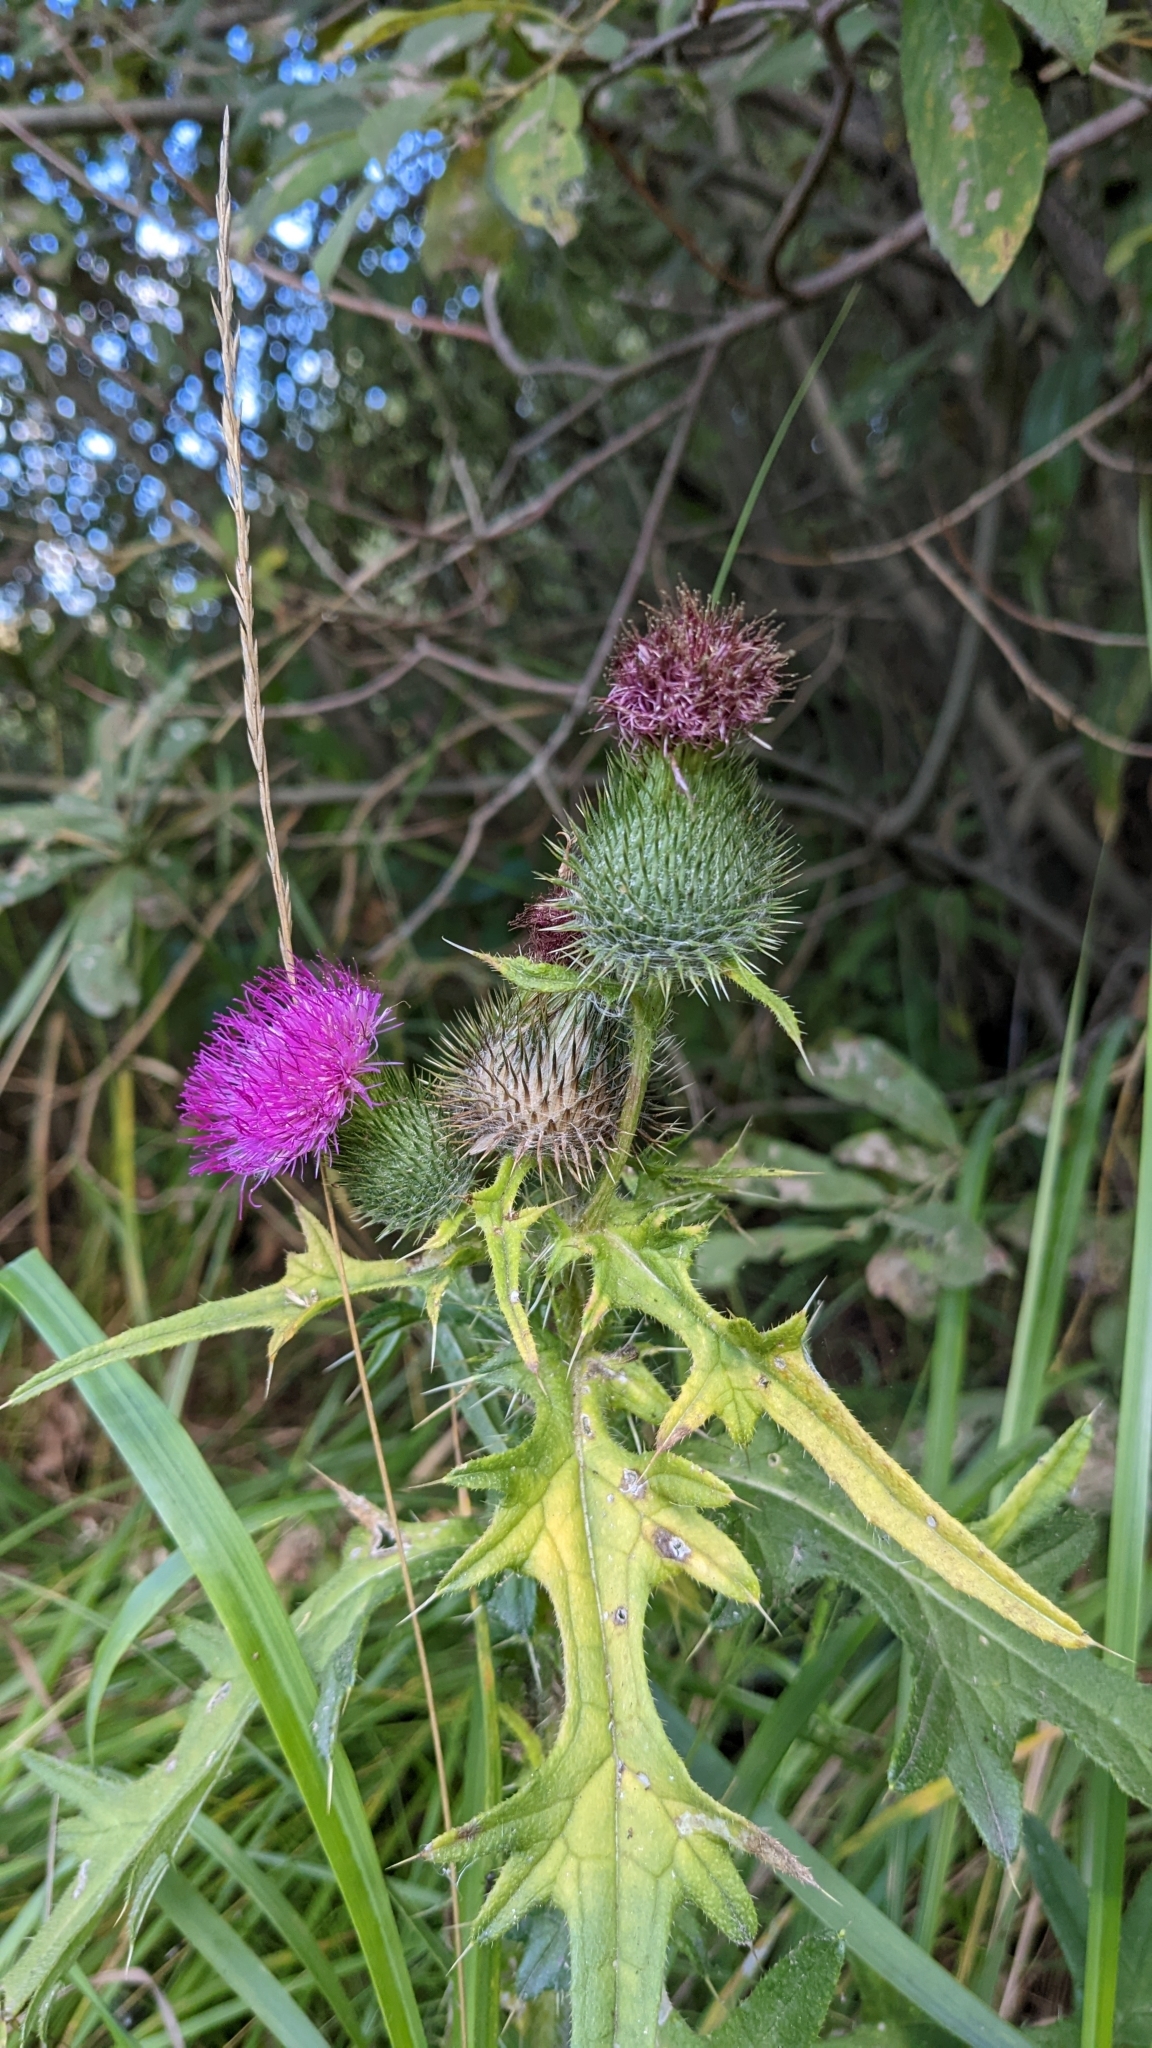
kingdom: Plantae
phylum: Tracheophyta
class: Magnoliopsida
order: Asterales
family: Asteraceae
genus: Cirsium
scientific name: Cirsium vulgare
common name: Bull thistle
